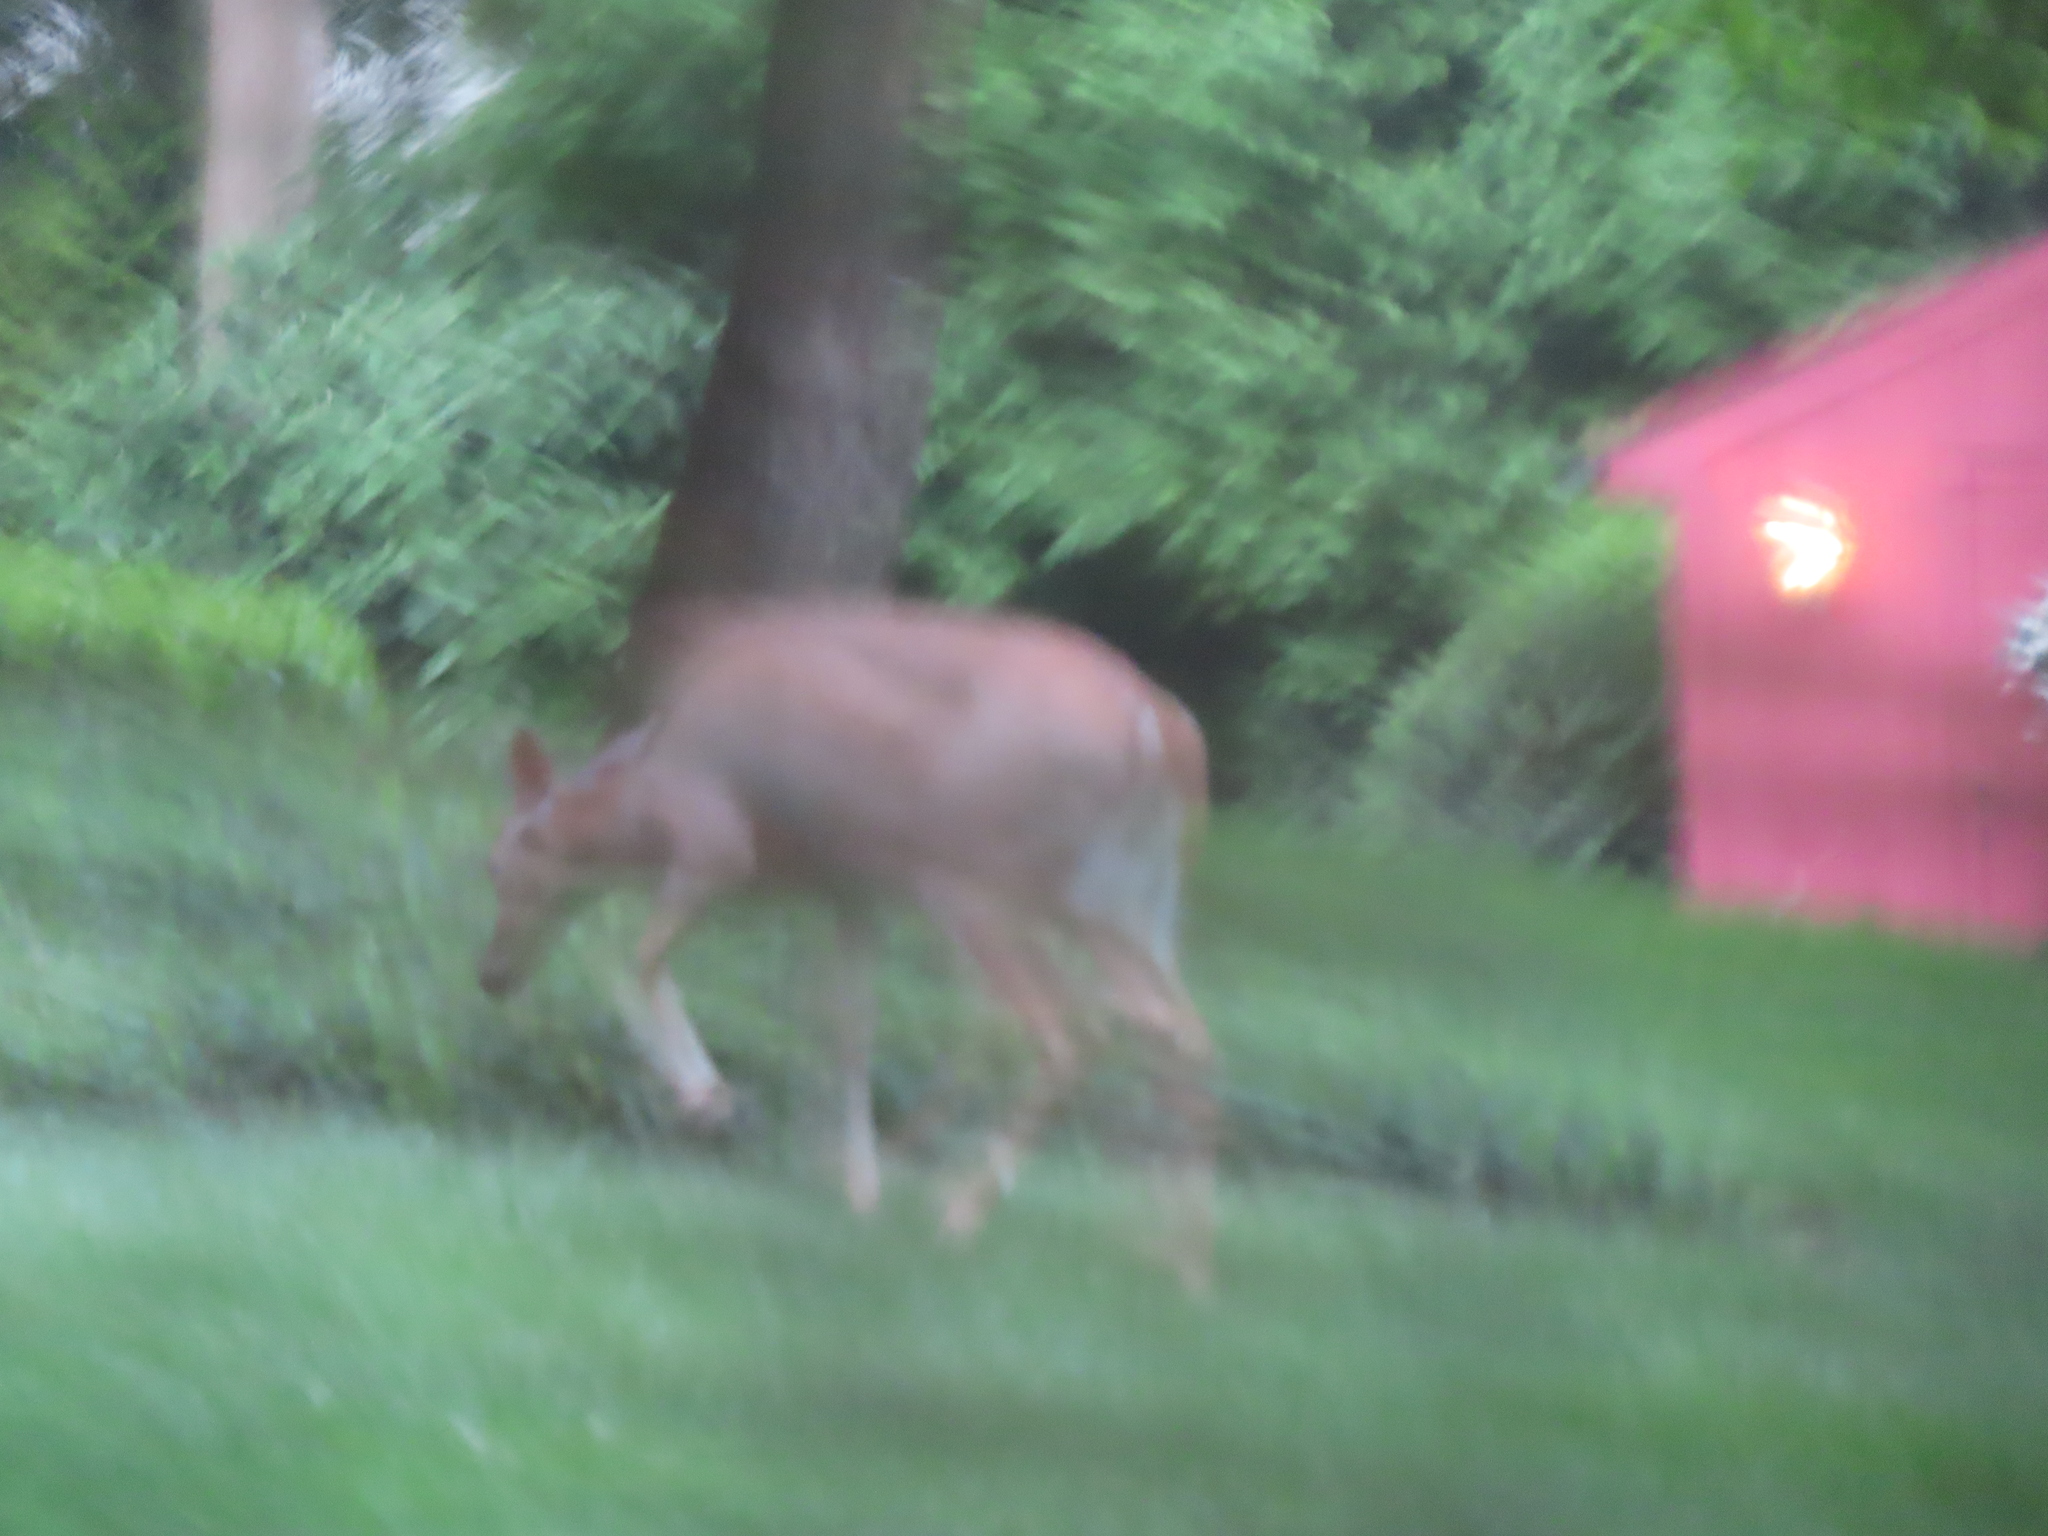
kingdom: Animalia
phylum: Chordata
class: Mammalia
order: Artiodactyla
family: Cervidae
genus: Odocoileus
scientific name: Odocoileus virginianus
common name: White-tailed deer
